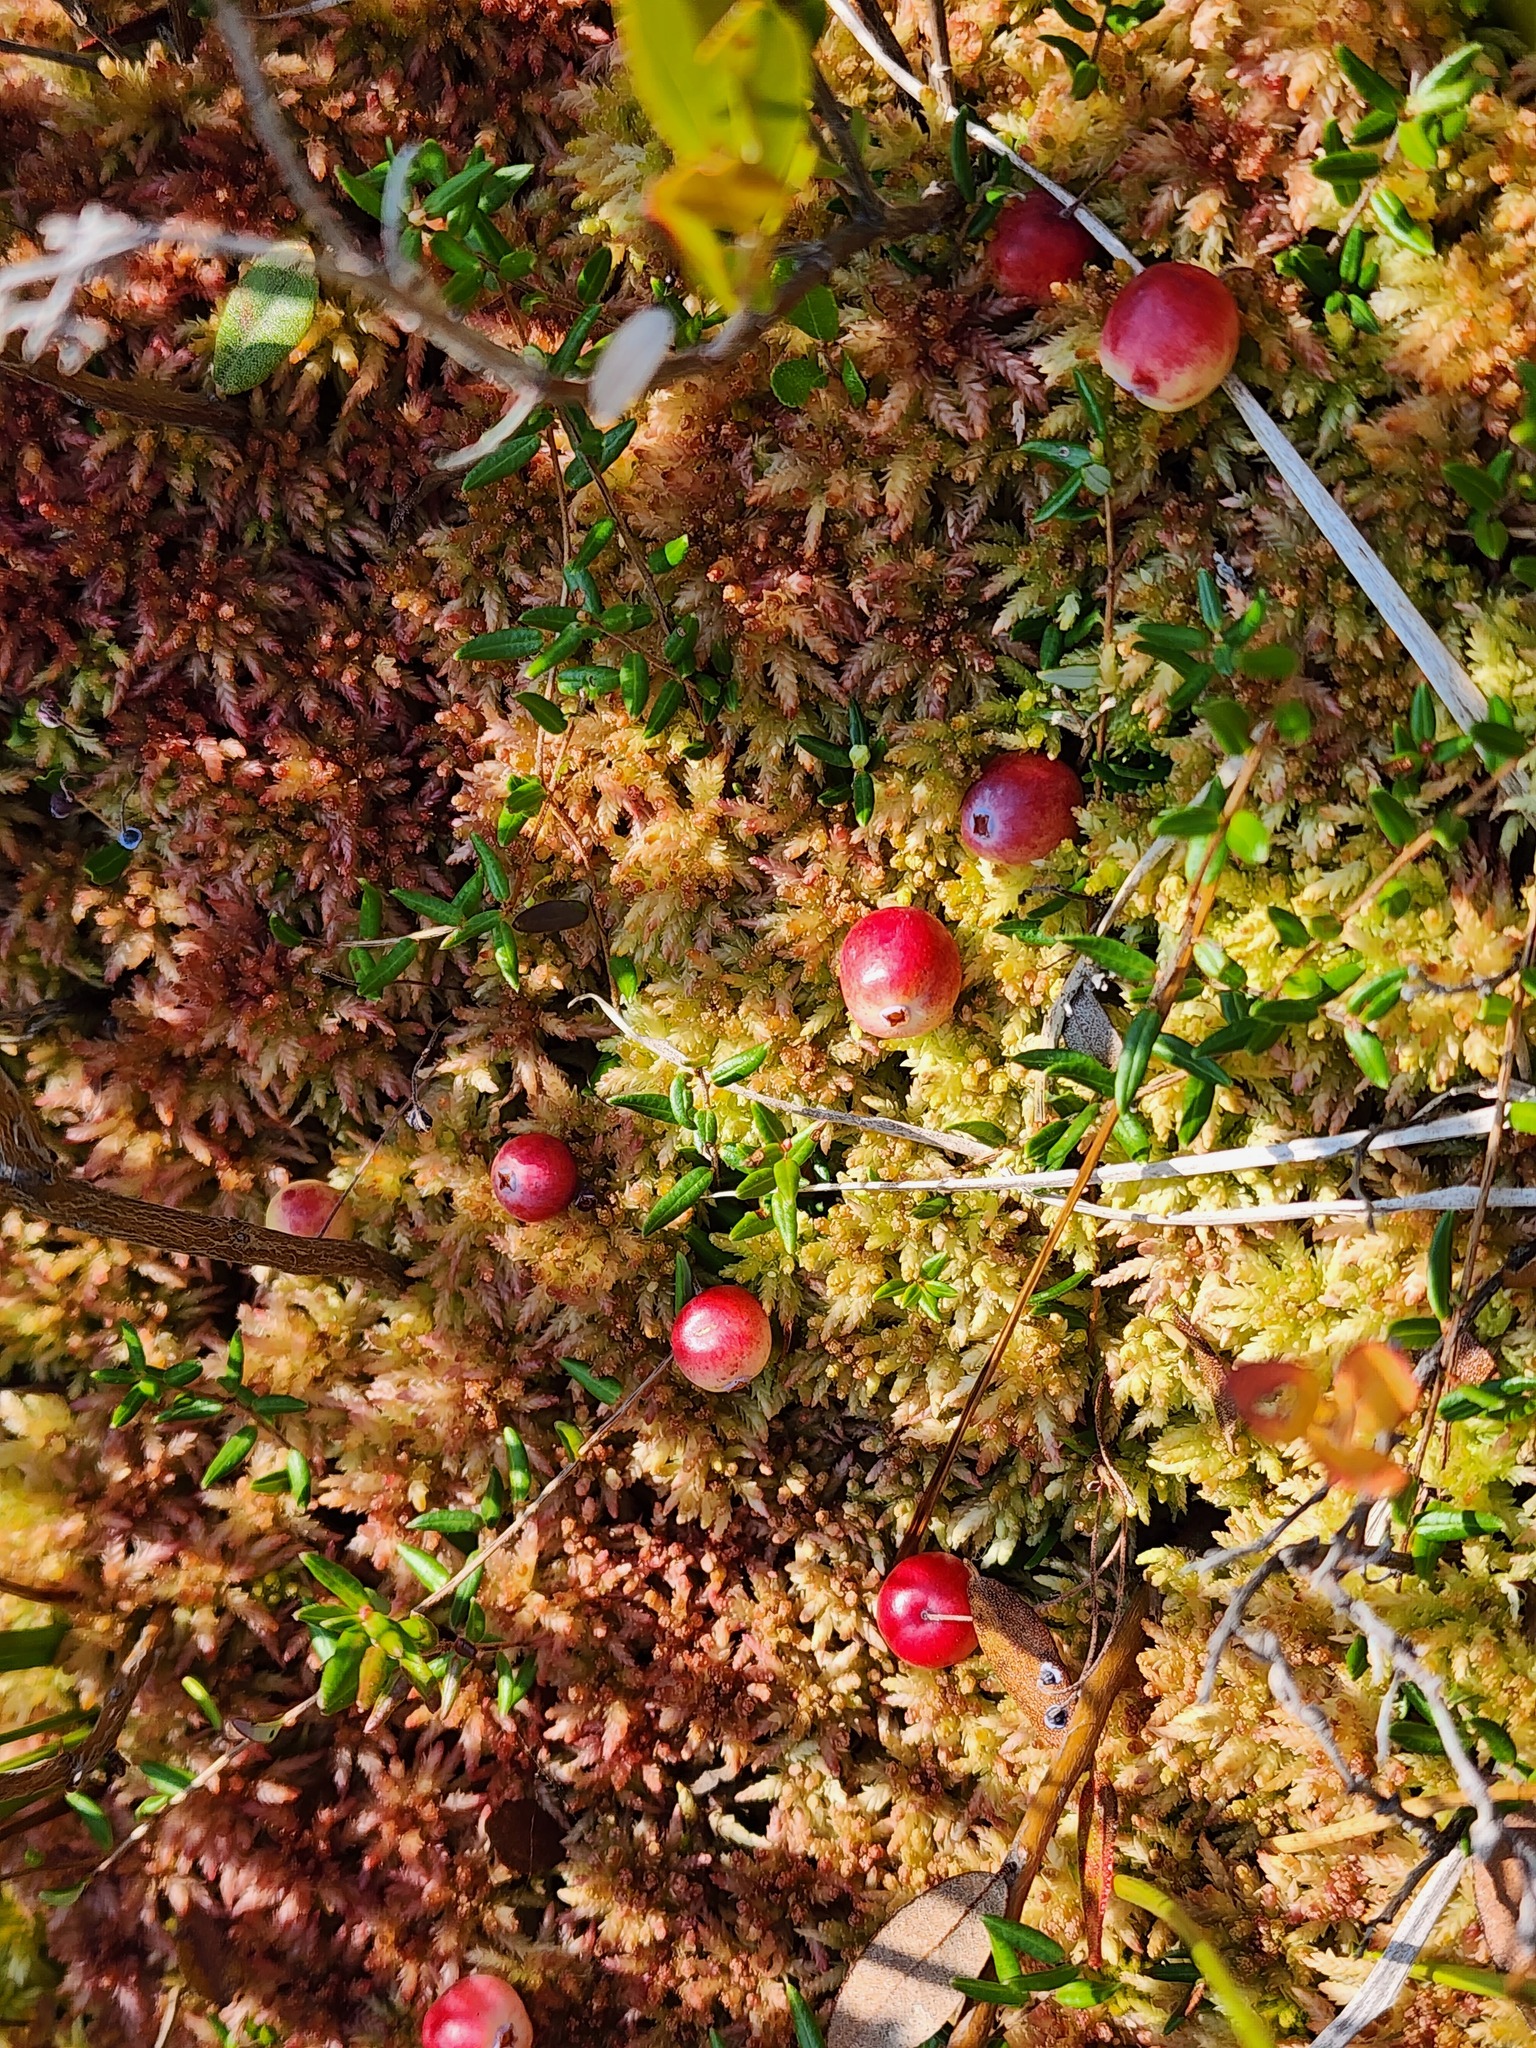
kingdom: Plantae
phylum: Tracheophyta
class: Magnoliopsida
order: Ericales
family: Ericaceae
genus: Vaccinium
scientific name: Vaccinium oxycoccos
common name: Cranberry
